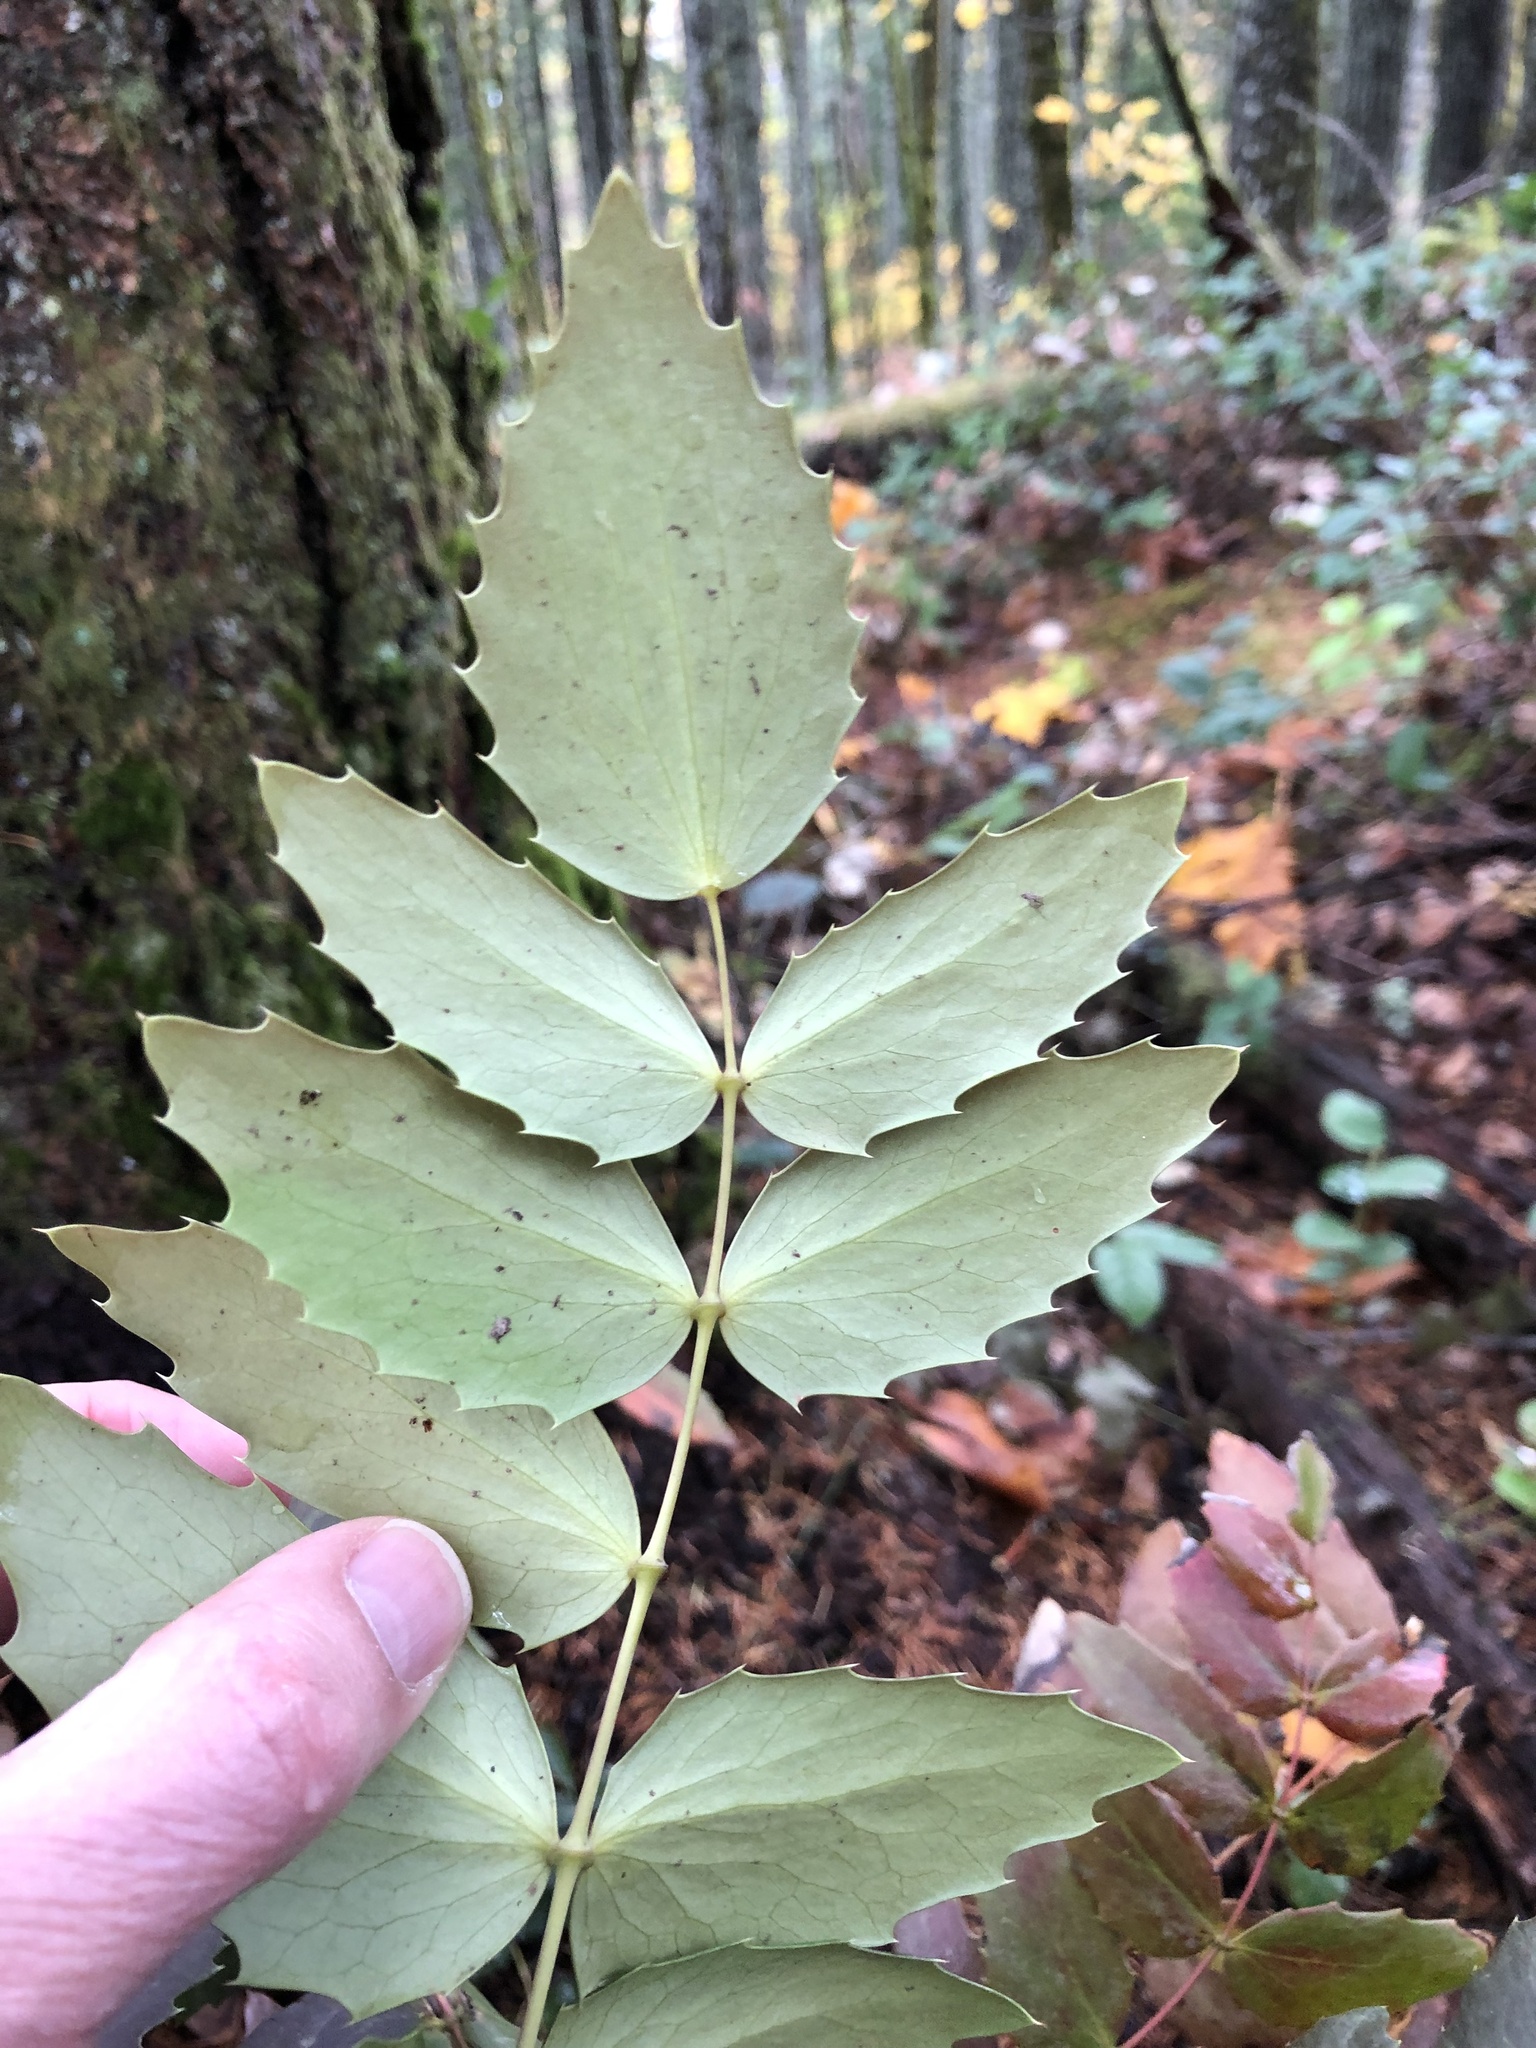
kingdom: Plantae
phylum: Tracheophyta
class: Magnoliopsida
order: Ranunculales
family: Berberidaceae
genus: Mahonia
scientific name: Mahonia nervosa
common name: Cascade oregon-grape
